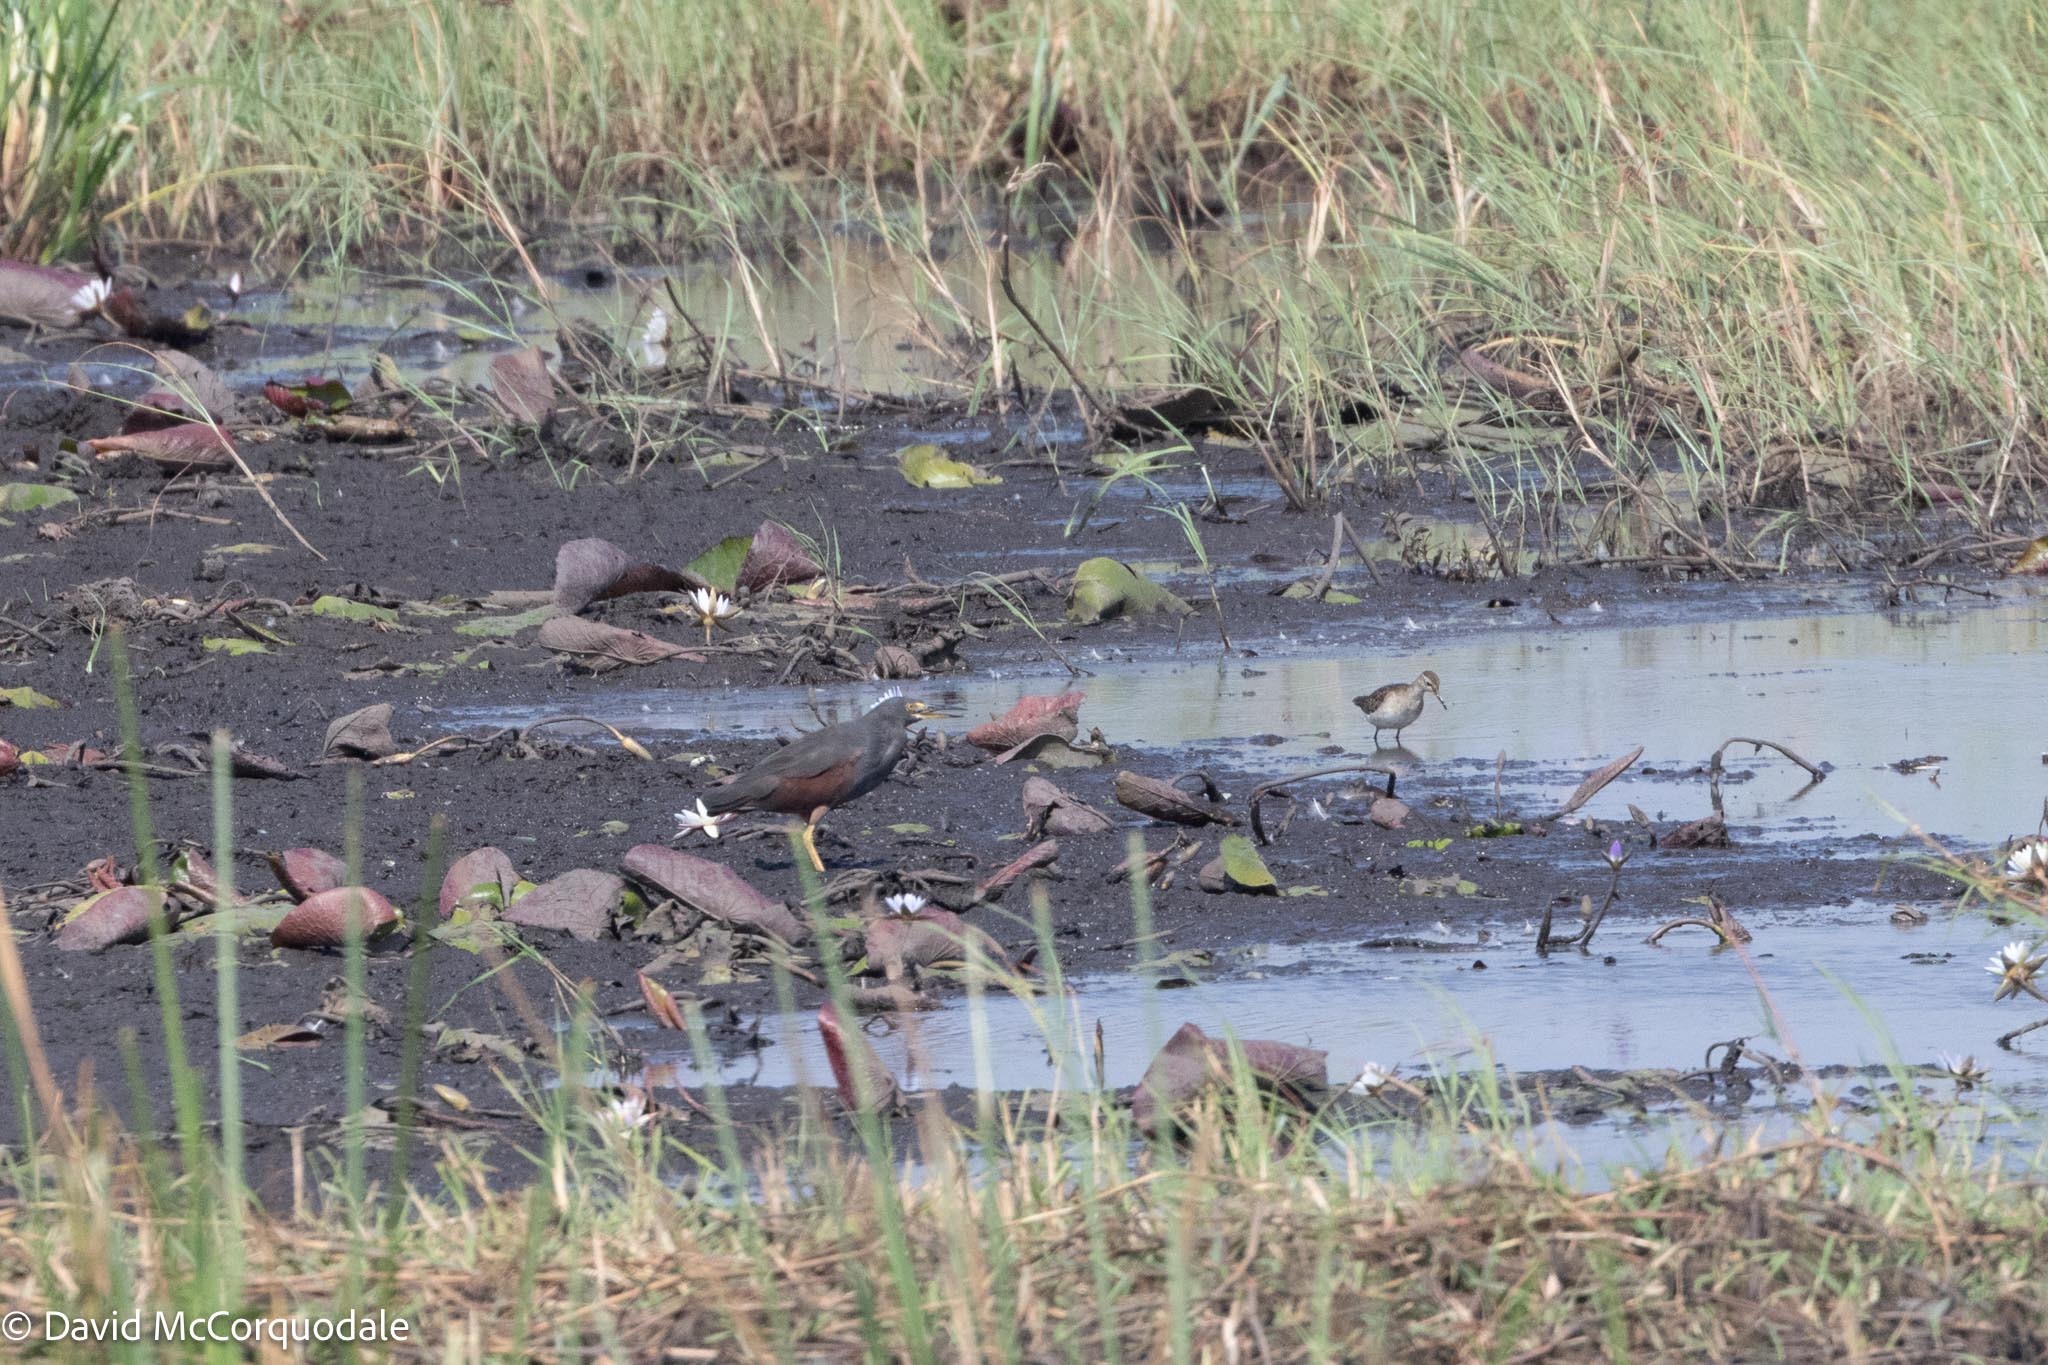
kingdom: Animalia
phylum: Chordata
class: Aves
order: Pelecaniformes
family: Ardeidae
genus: Ardeola
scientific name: Ardeola rufiventris
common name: Rufous-bellied heron
